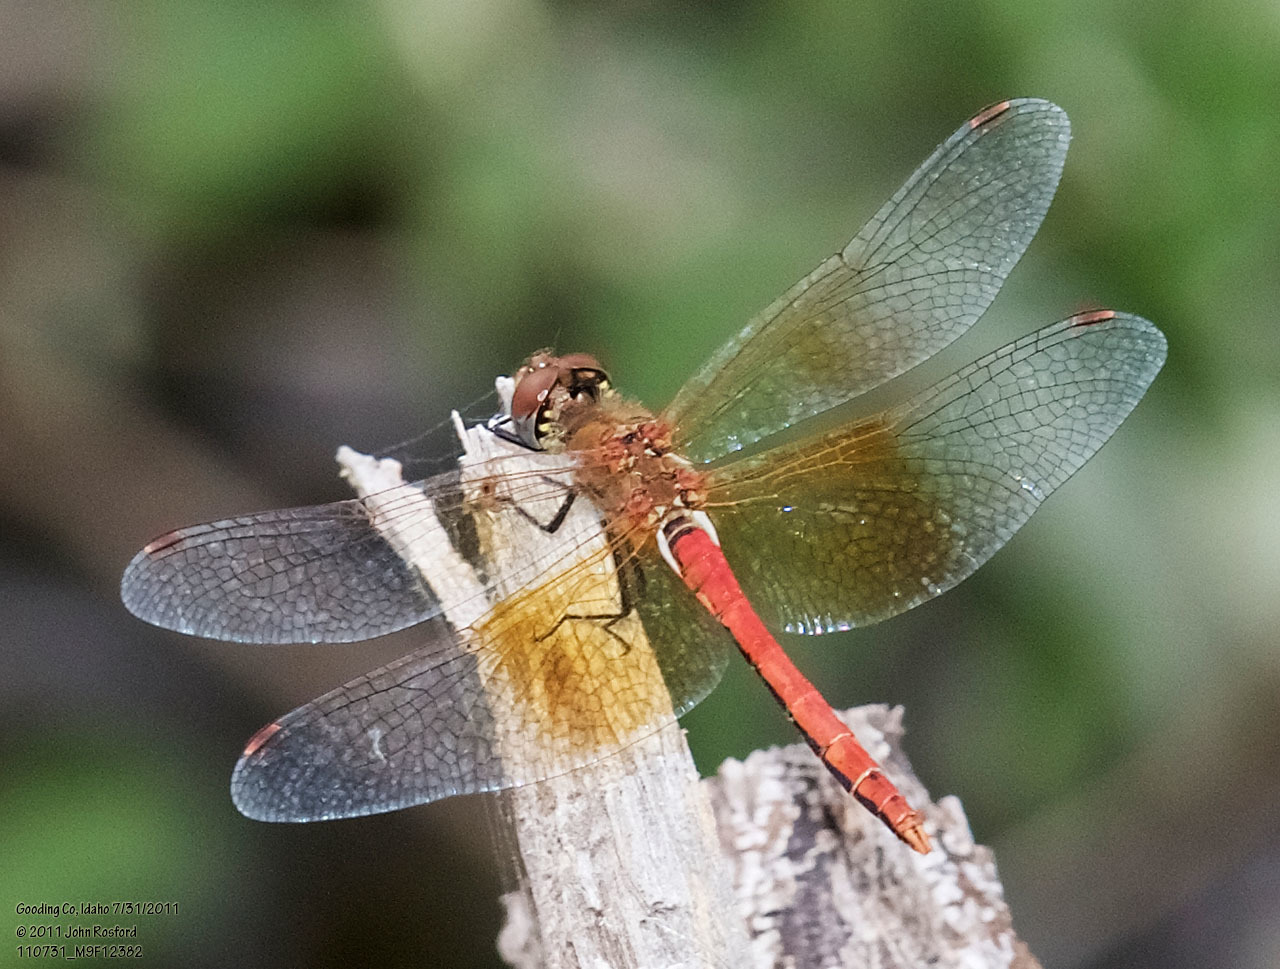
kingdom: Animalia
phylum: Arthropoda
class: Insecta
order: Odonata
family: Libellulidae
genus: Sympetrum
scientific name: Sympetrum semicinctum
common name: Band-winged meadowhawk
